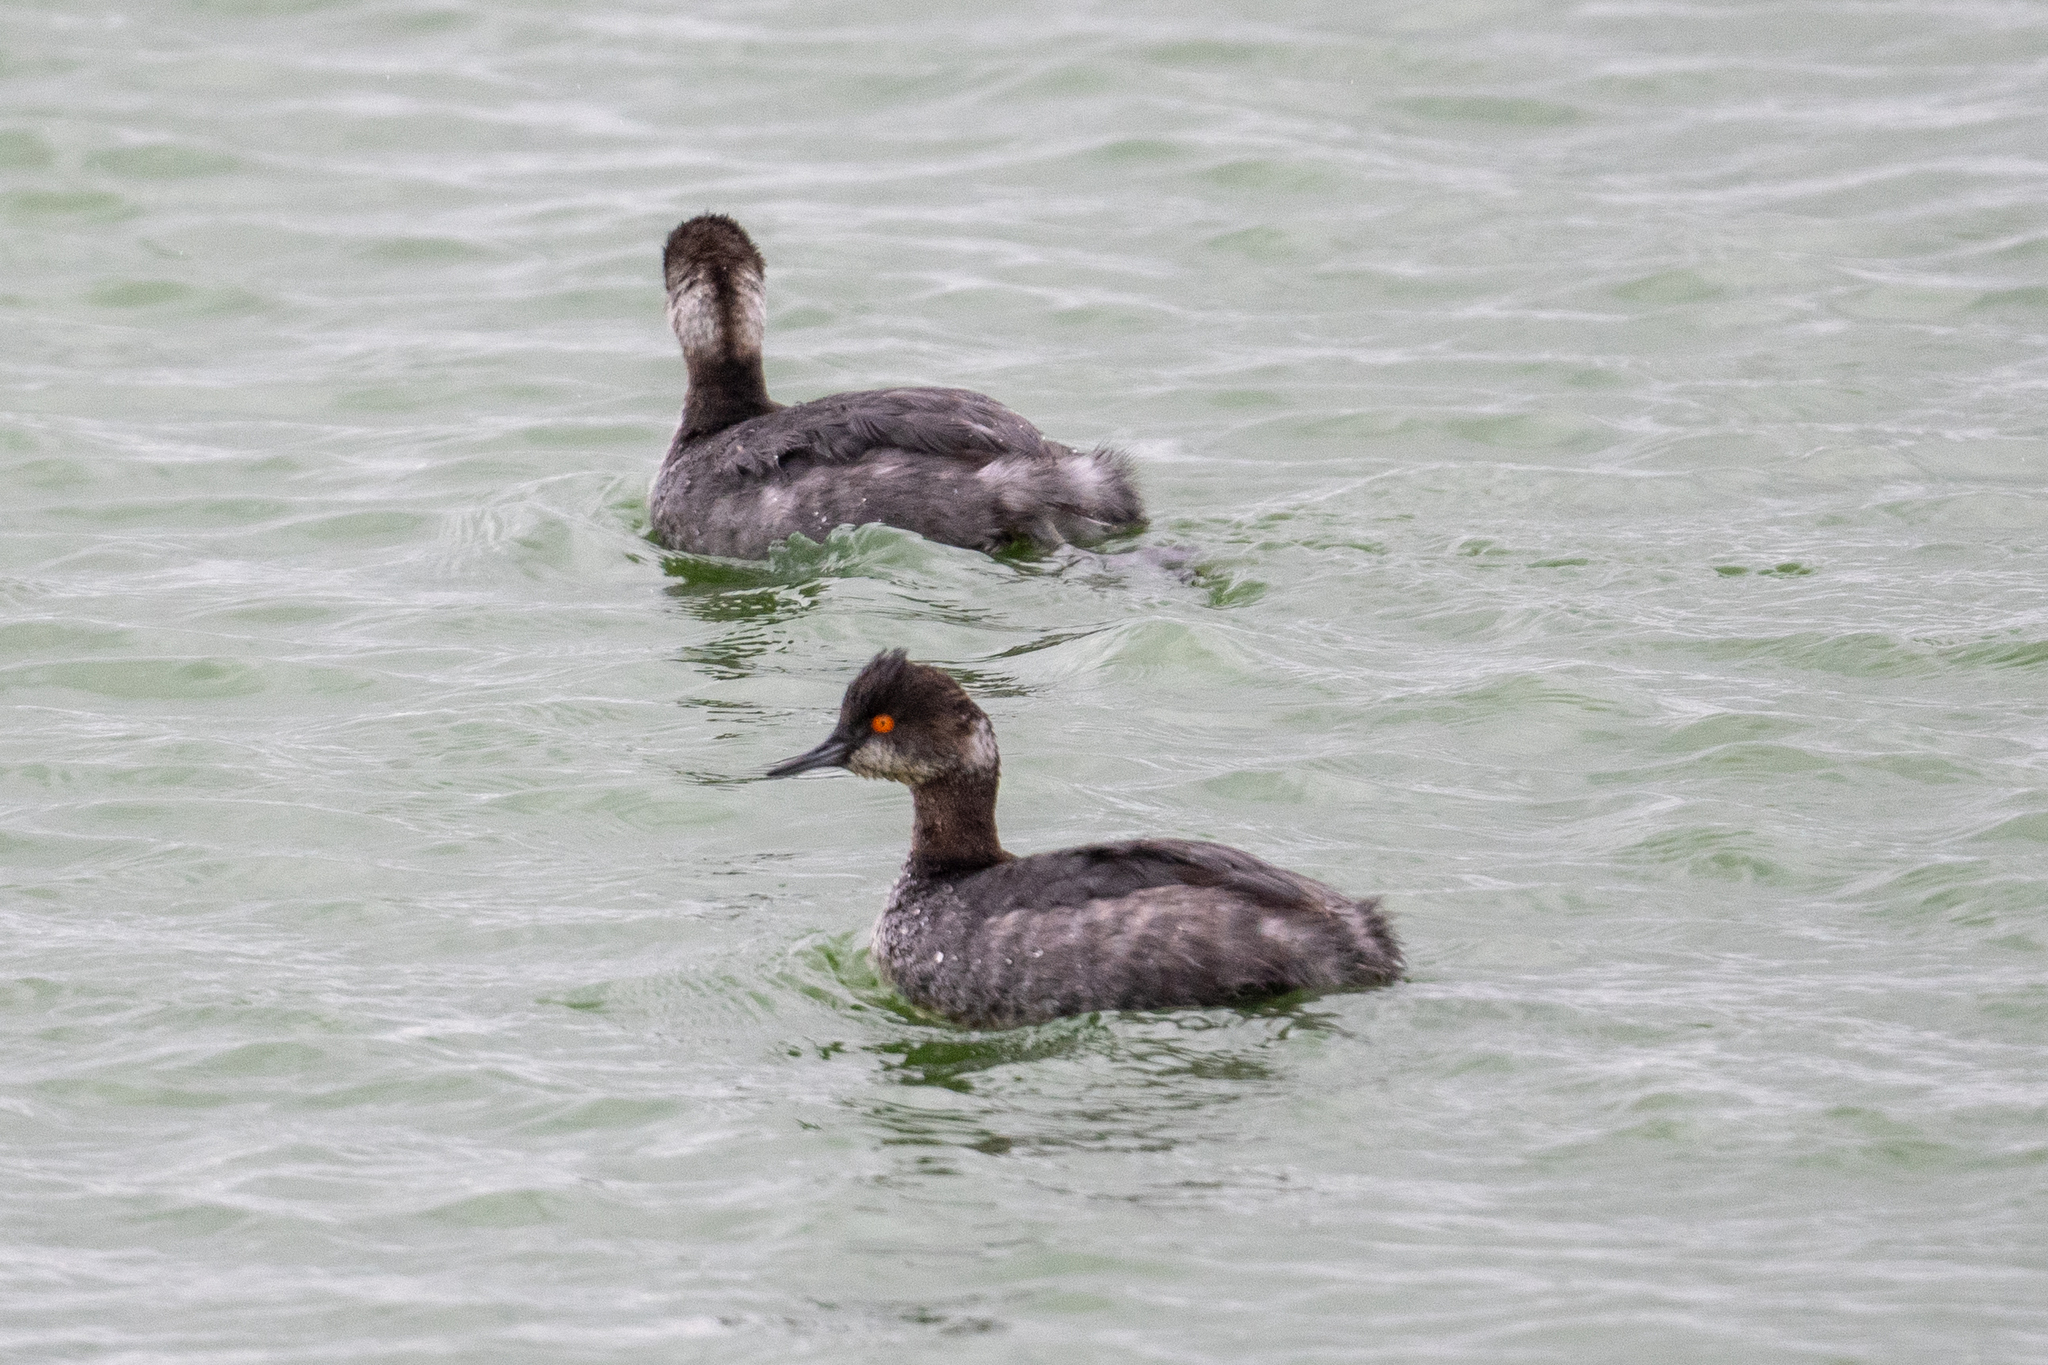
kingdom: Animalia
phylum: Chordata
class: Aves
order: Podicipediformes
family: Podicipedidae
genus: Podiceps
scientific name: Podiceps nigricollis
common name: Black-necked grebe
